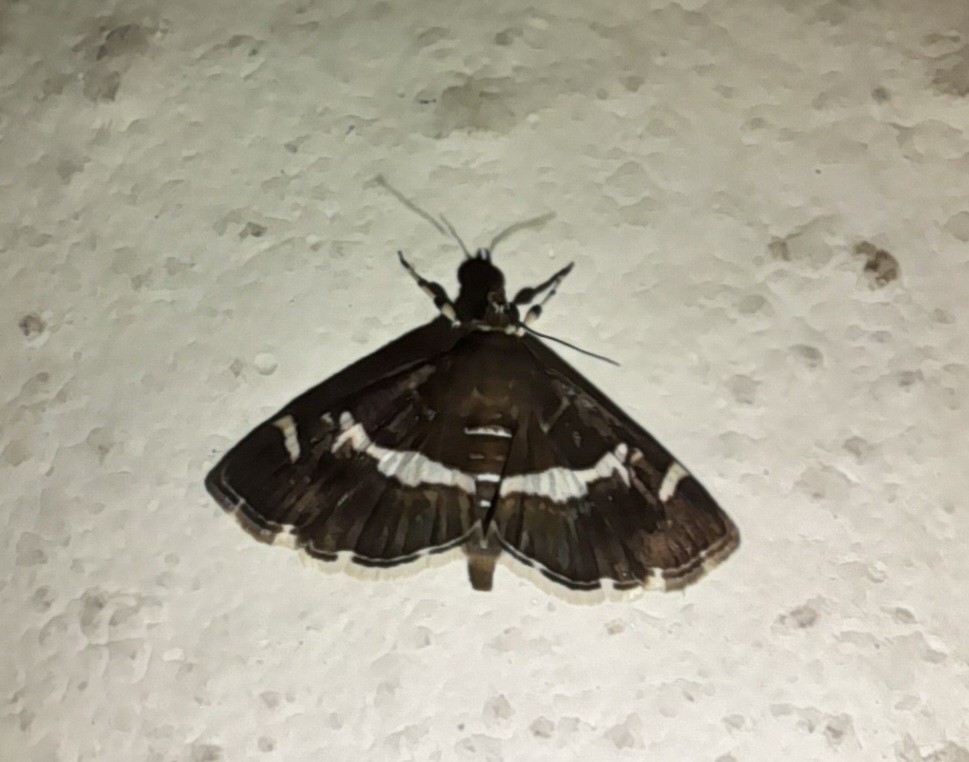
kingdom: Animalia
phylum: Arthropoda
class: Insecta
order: Lepidoptera
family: Crambidae
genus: Spoladea
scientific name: Spoladea recurvalis
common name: Beet webworm moth
